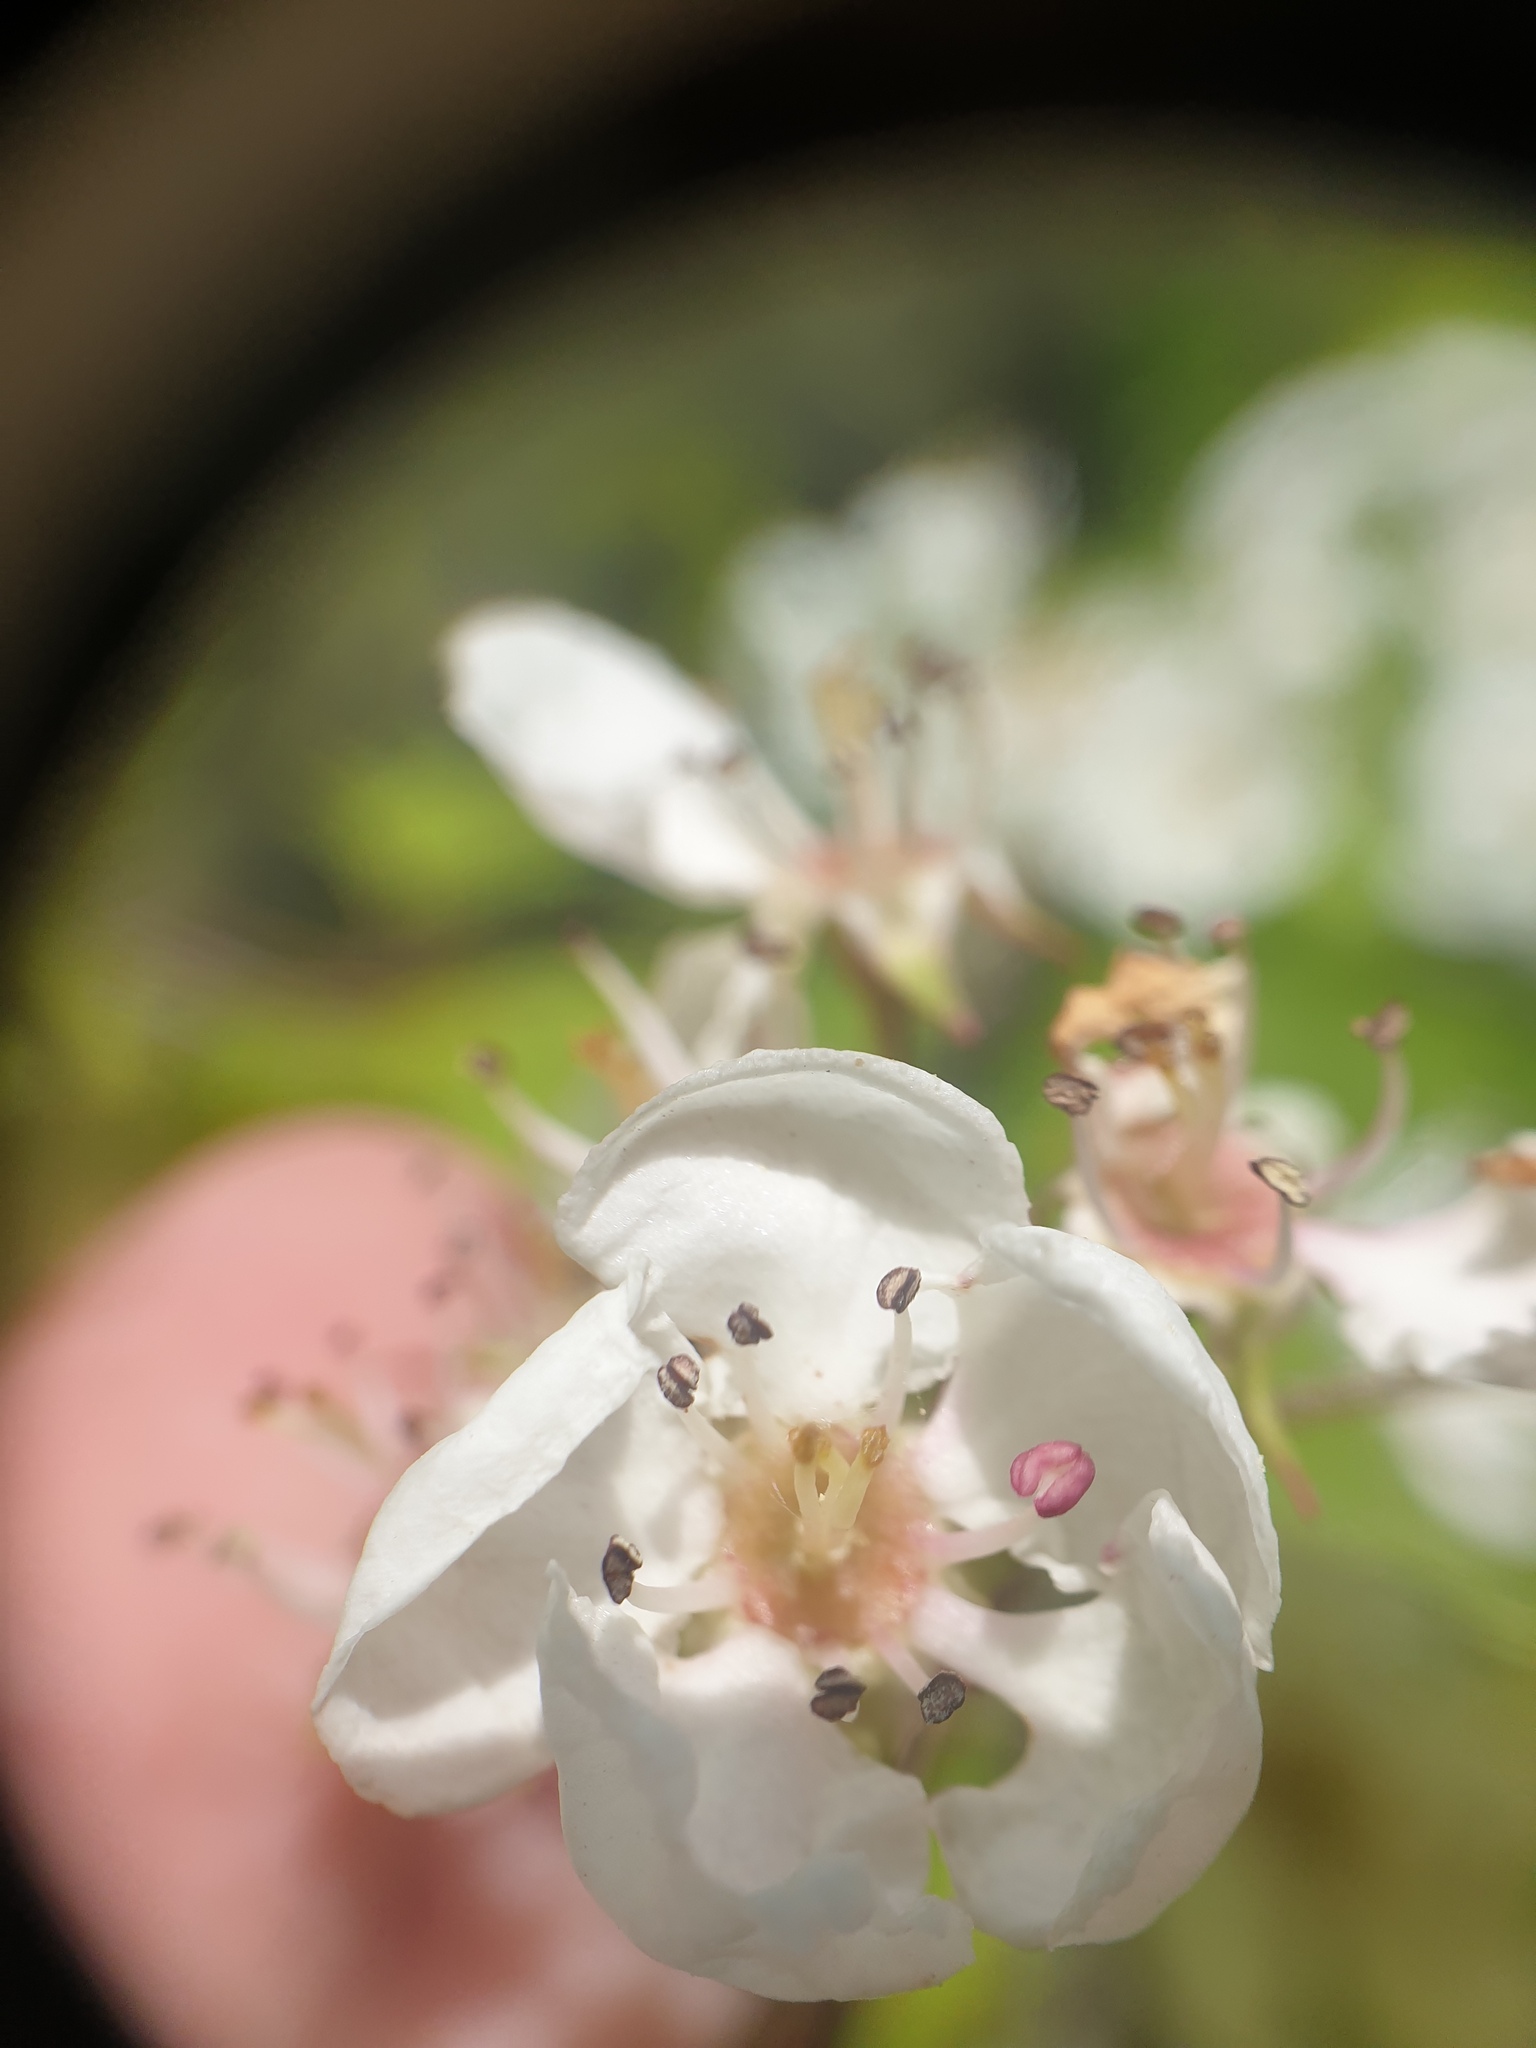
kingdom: Plantae
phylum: Tracheophyta
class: Magnoliopsida
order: Rosales
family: Rosaceae
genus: Crataegus
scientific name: Crataegus pruinosa
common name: Waxy-fruit hawthorn
